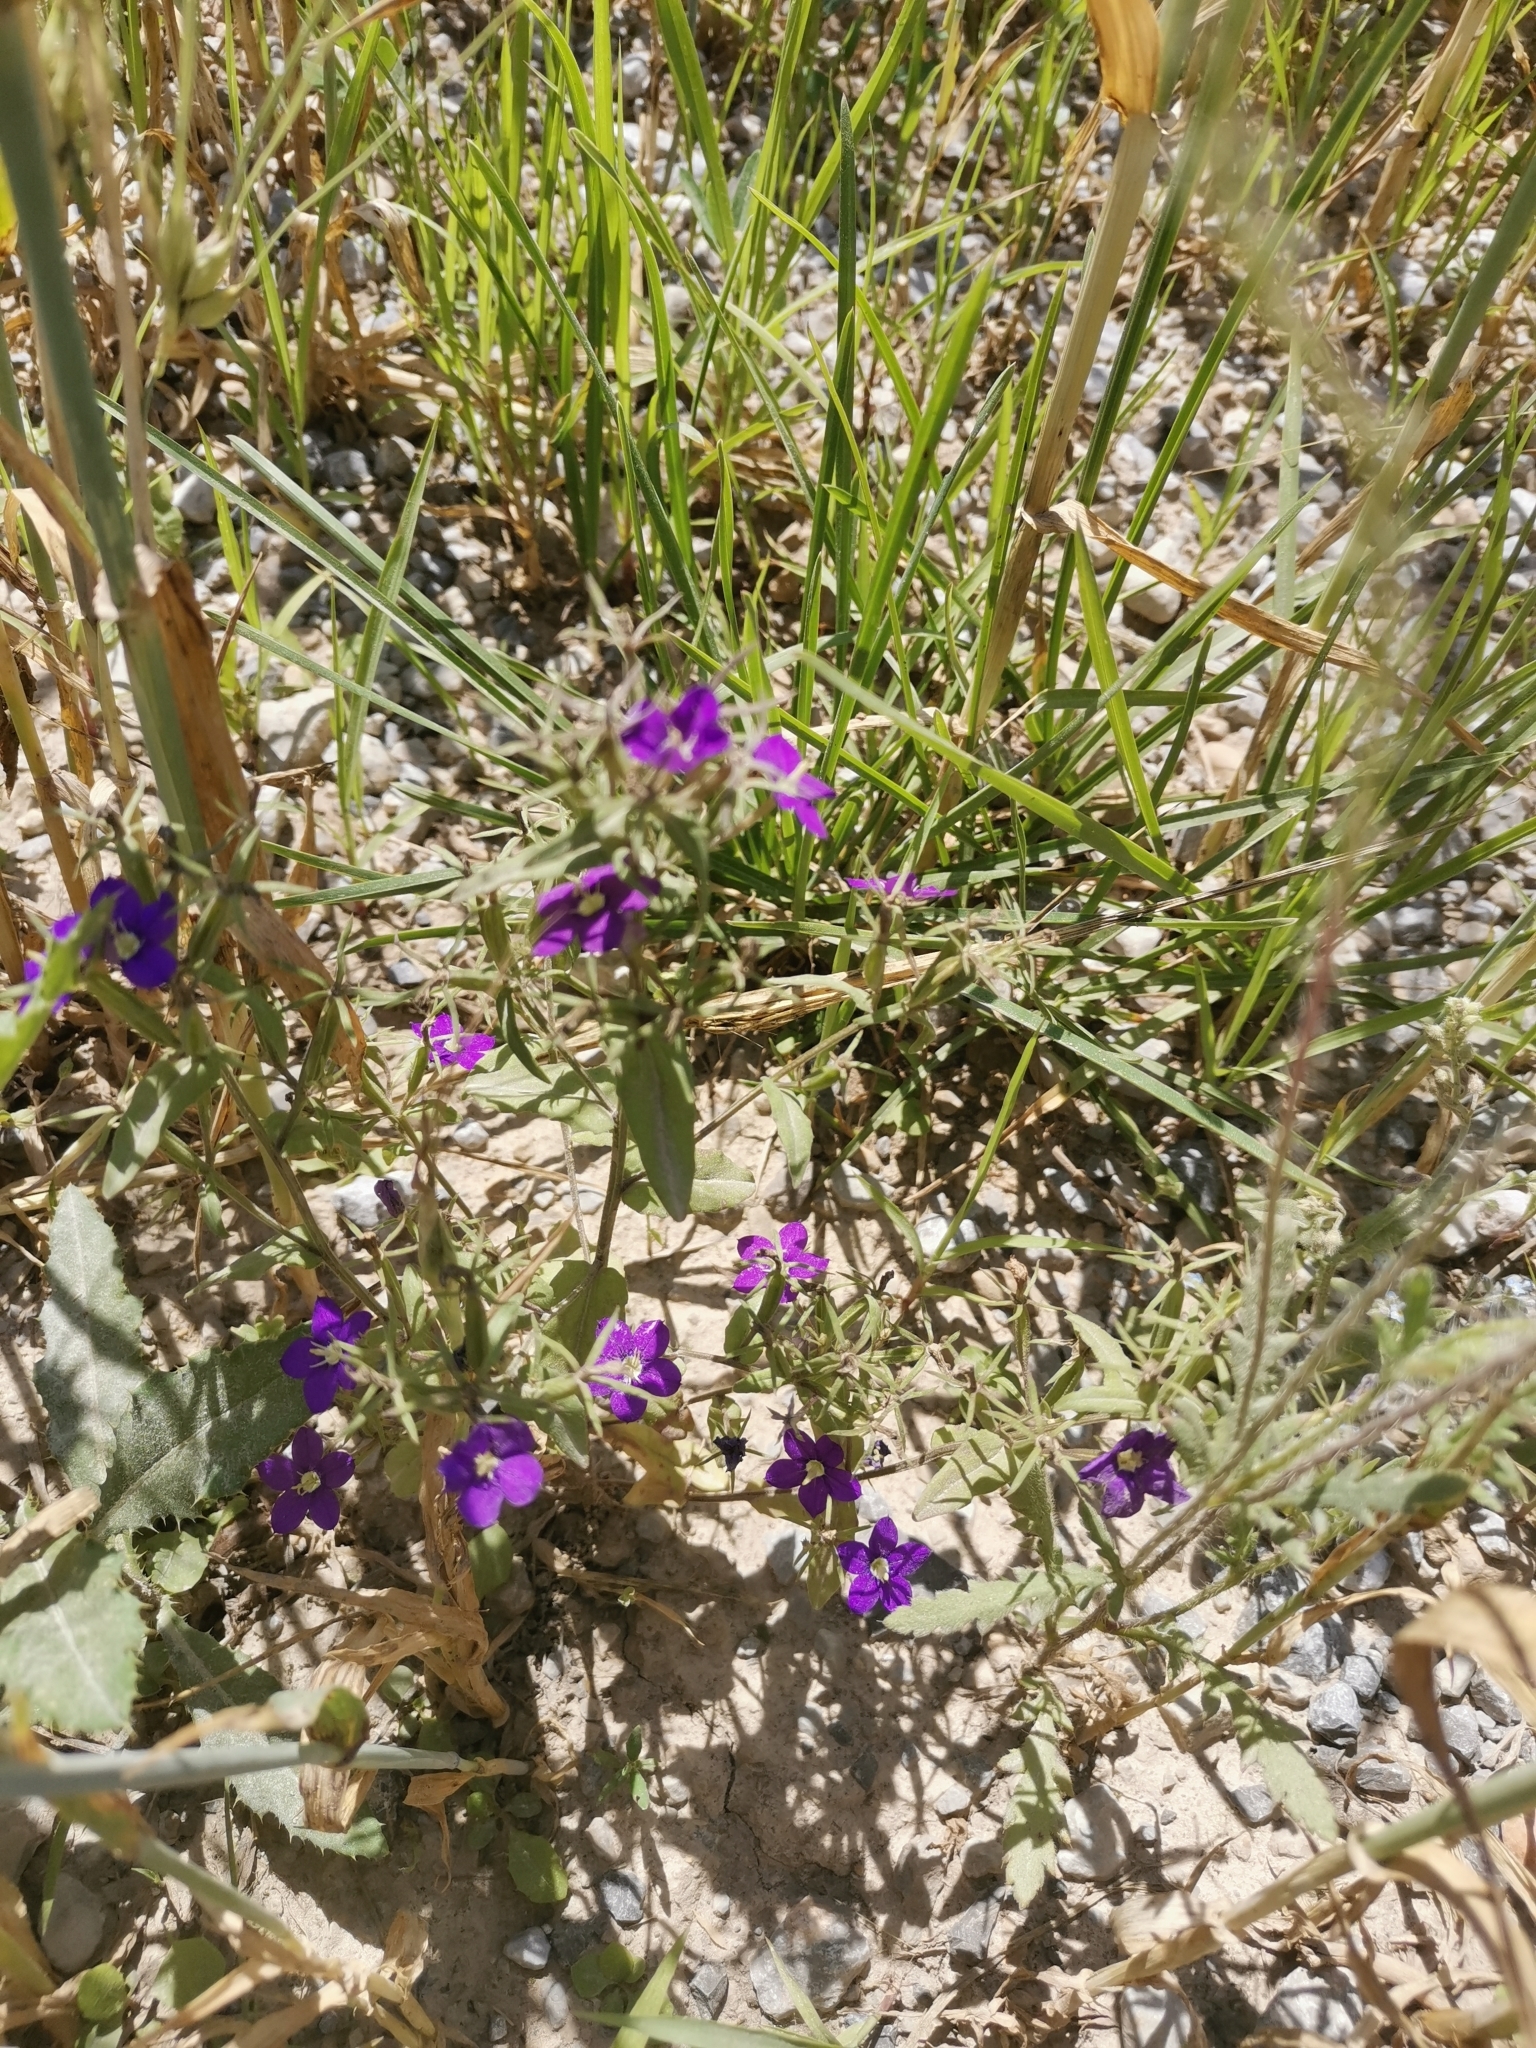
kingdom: Plantae
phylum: Tracheophyta
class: Magnoliopsida
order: Asterales
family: Campanulaceae
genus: Legousia
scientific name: Legousia speculum-veneris
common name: Large venus's-looking-glass
